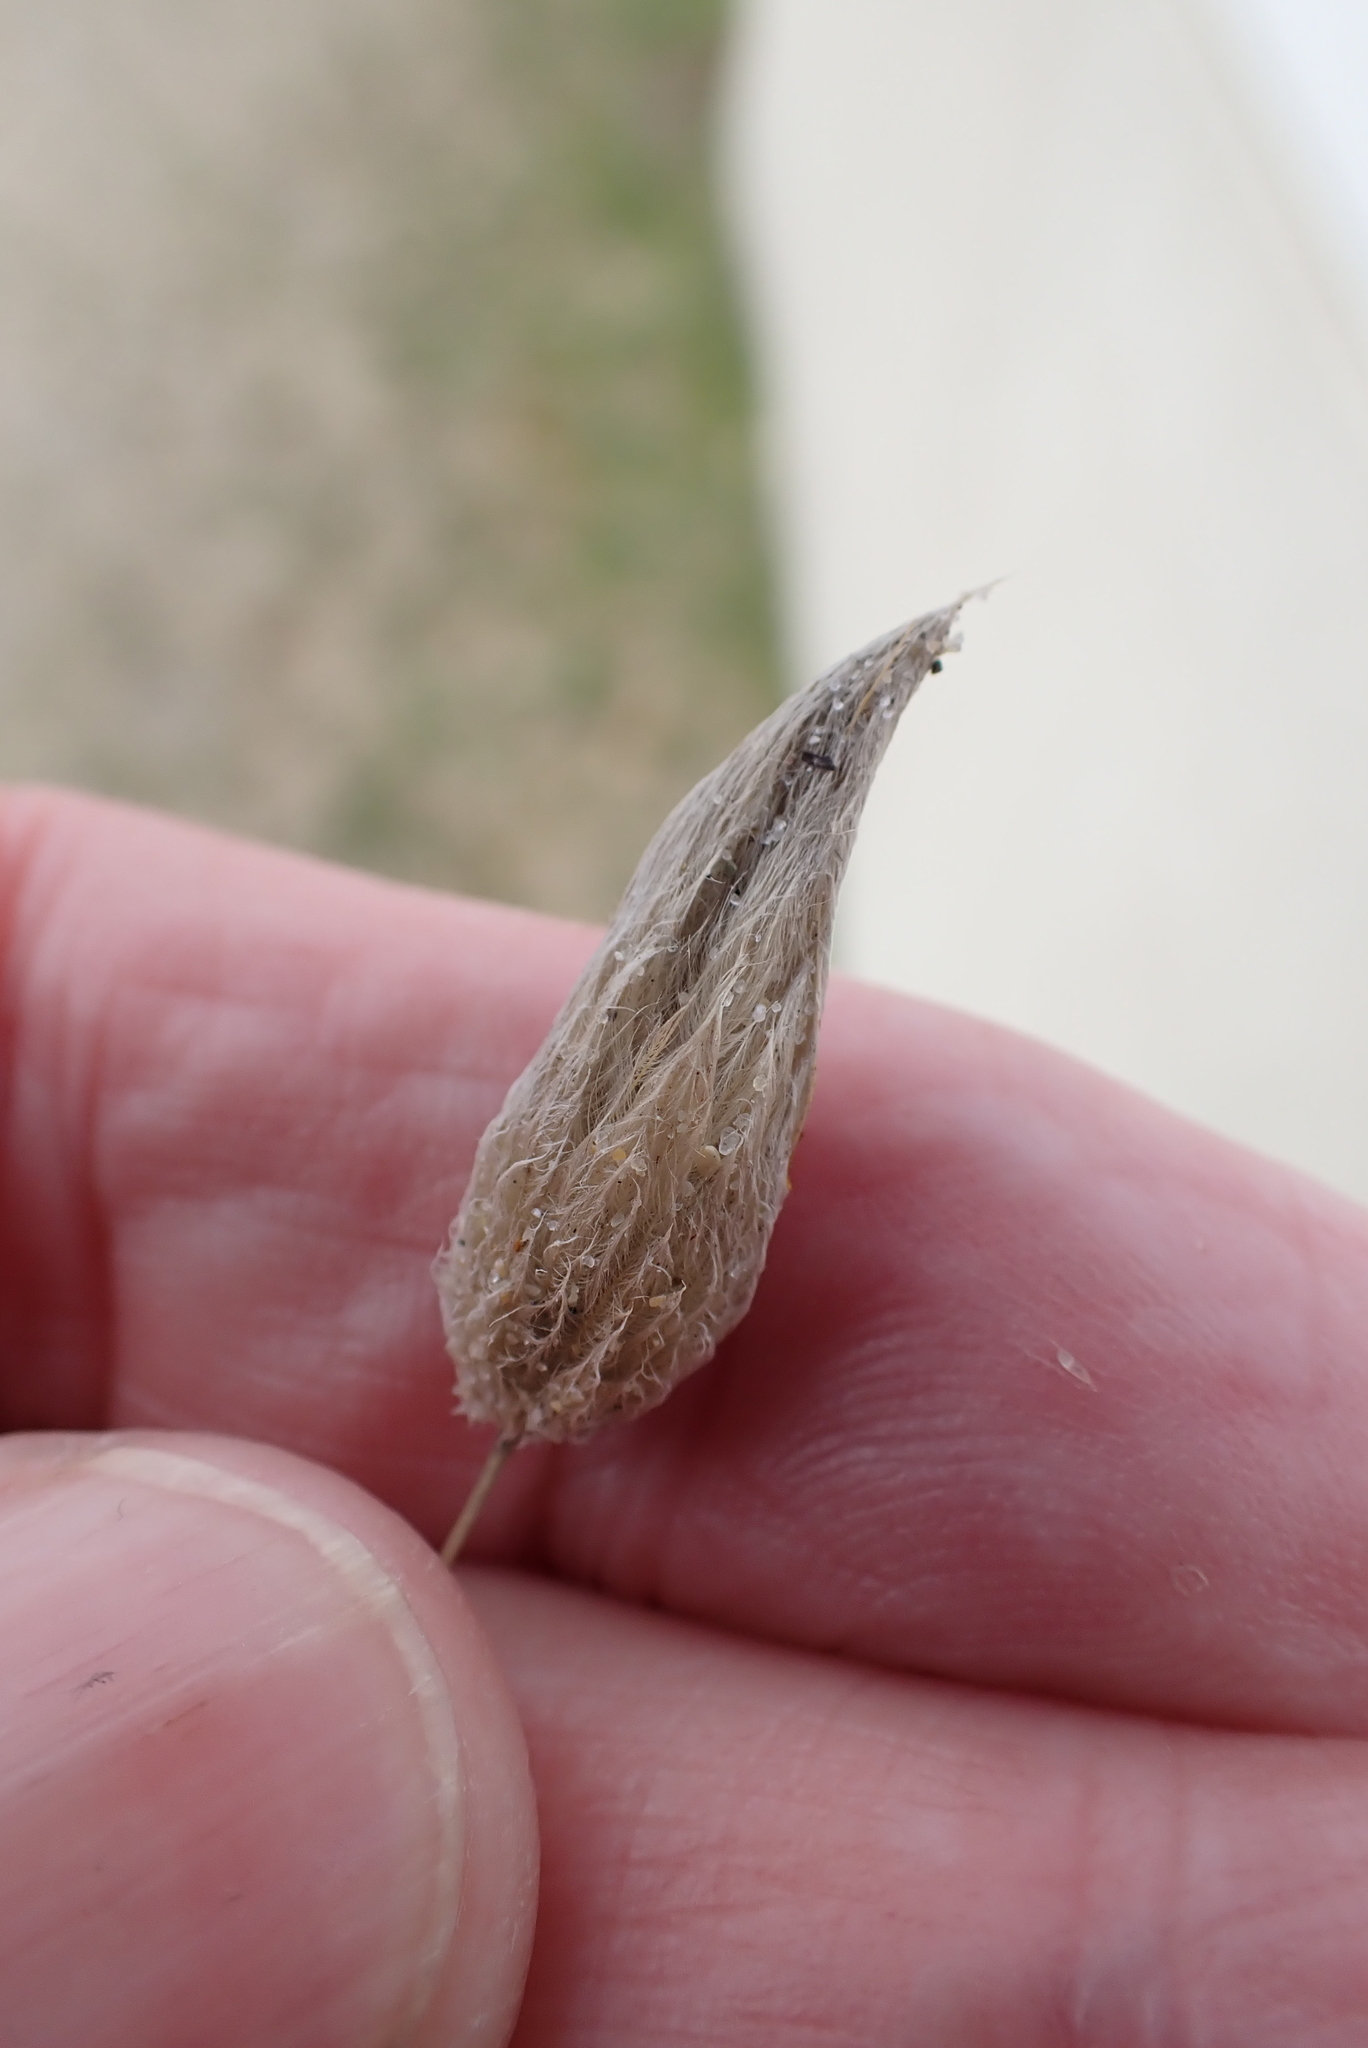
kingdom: Plantae
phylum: Tracheophyta
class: Liliopsida
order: Poales
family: Poaceae
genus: Lagurus
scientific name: Lagurus ovatus
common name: Hare's-tail
